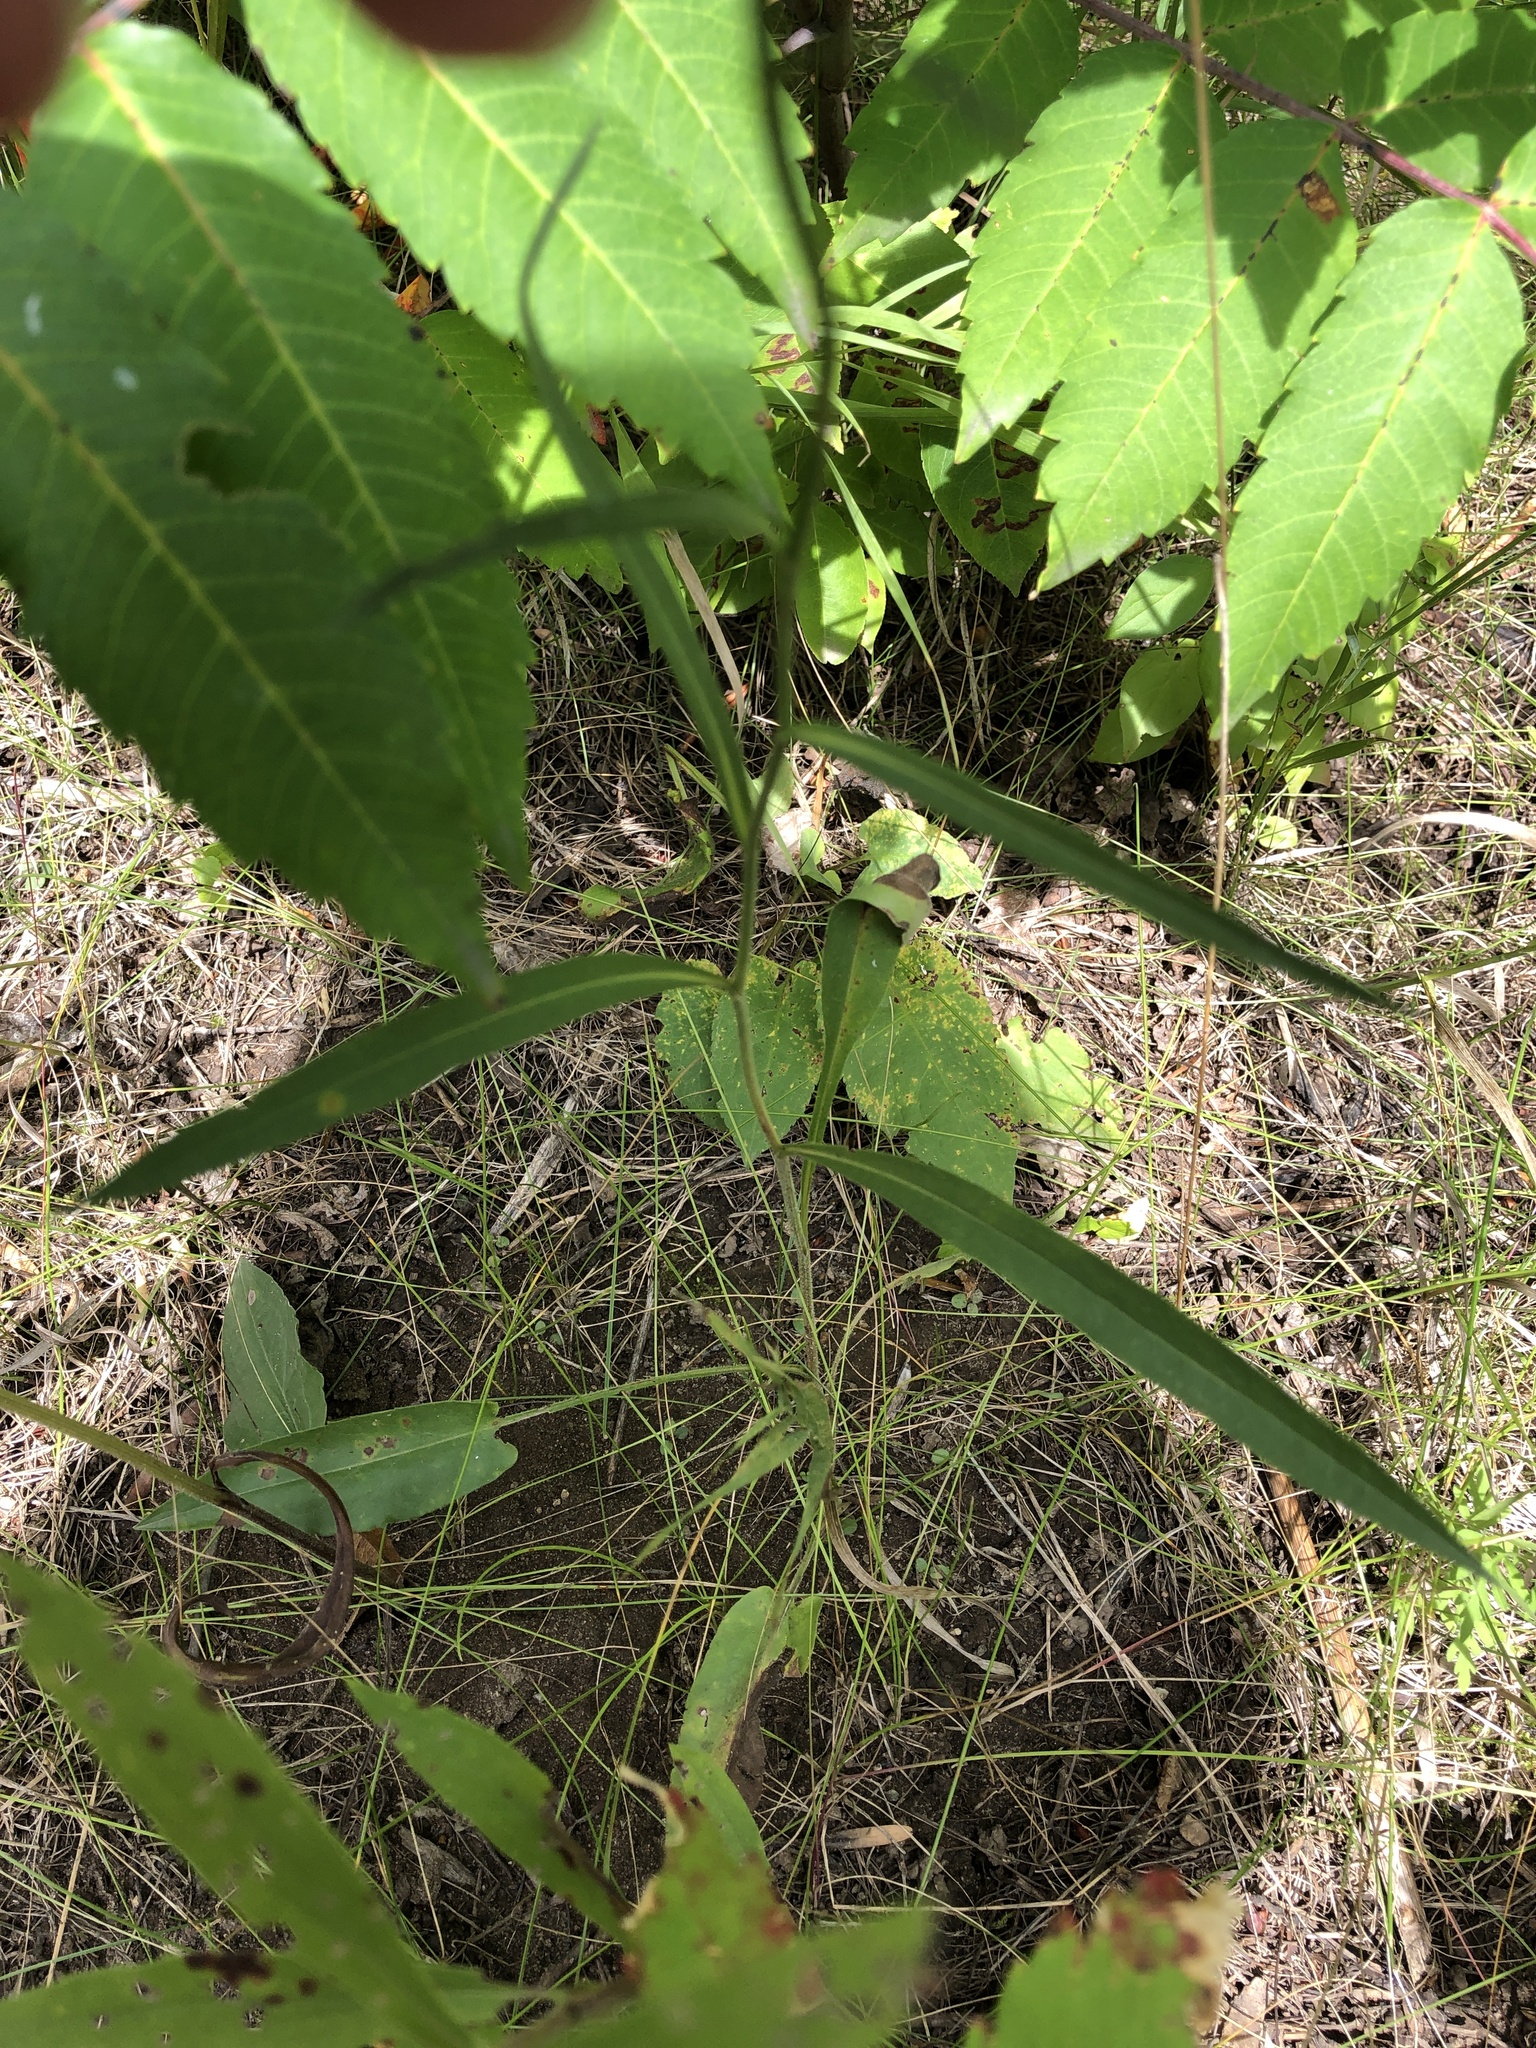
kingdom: Plantae
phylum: Tracheophyta
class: Magnoliopsida
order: Asterales
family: Asteraceae
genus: Symphyotrichum
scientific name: Symphyotrichum oolentangiense
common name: Azure aster
